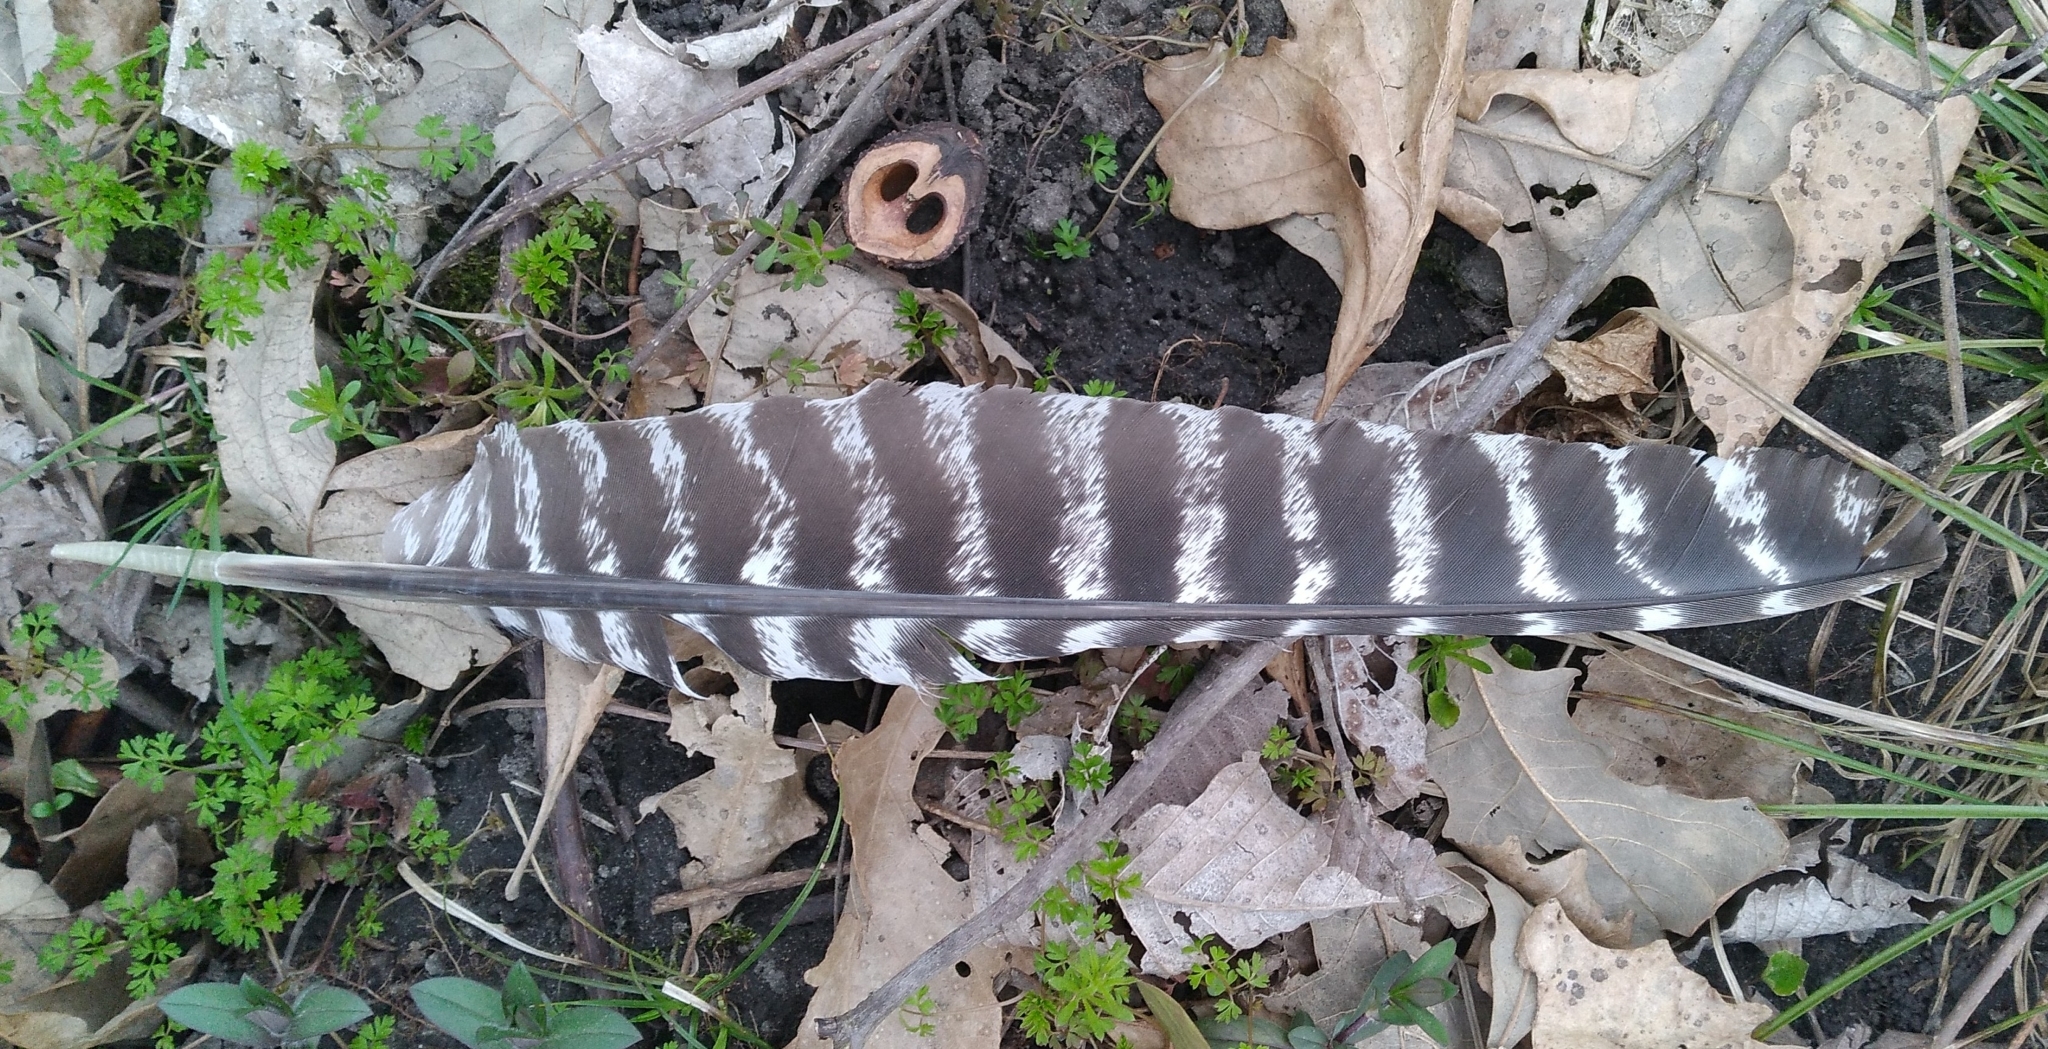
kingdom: Animalia
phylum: Chordata
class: Aves
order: Galliformes
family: Phasianidae
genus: Meleagris
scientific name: Meleagris gallopavo
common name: Wild turkey
